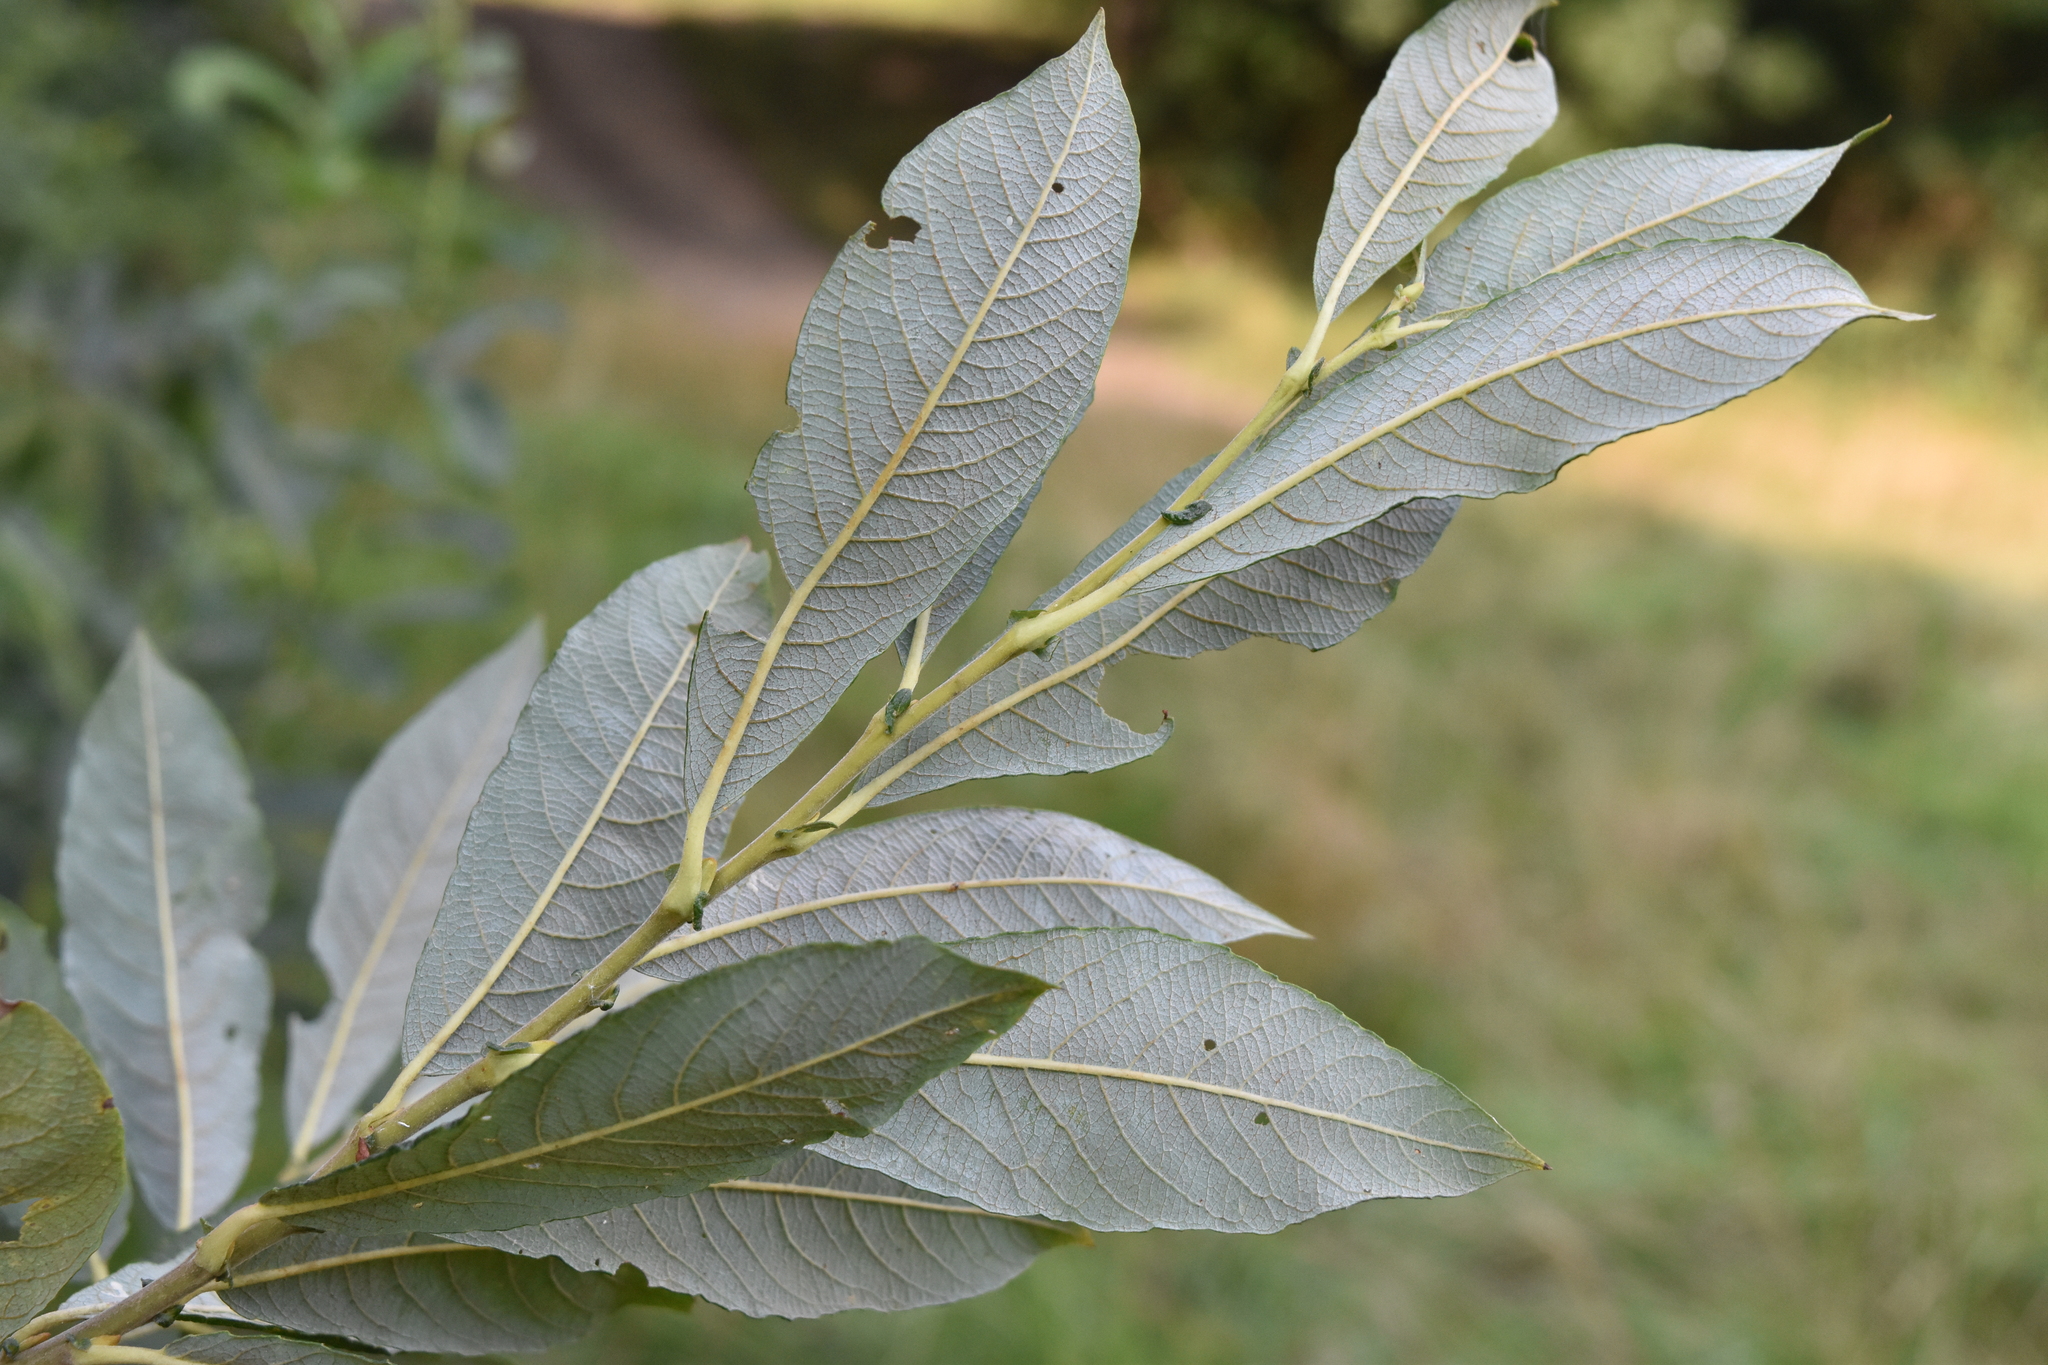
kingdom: Plantae
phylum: Tracheophyta
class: Magnoliopsida
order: Malpighiales
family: Salicaceae
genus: Salix
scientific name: Salix atrocinerea
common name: Rusty willow
